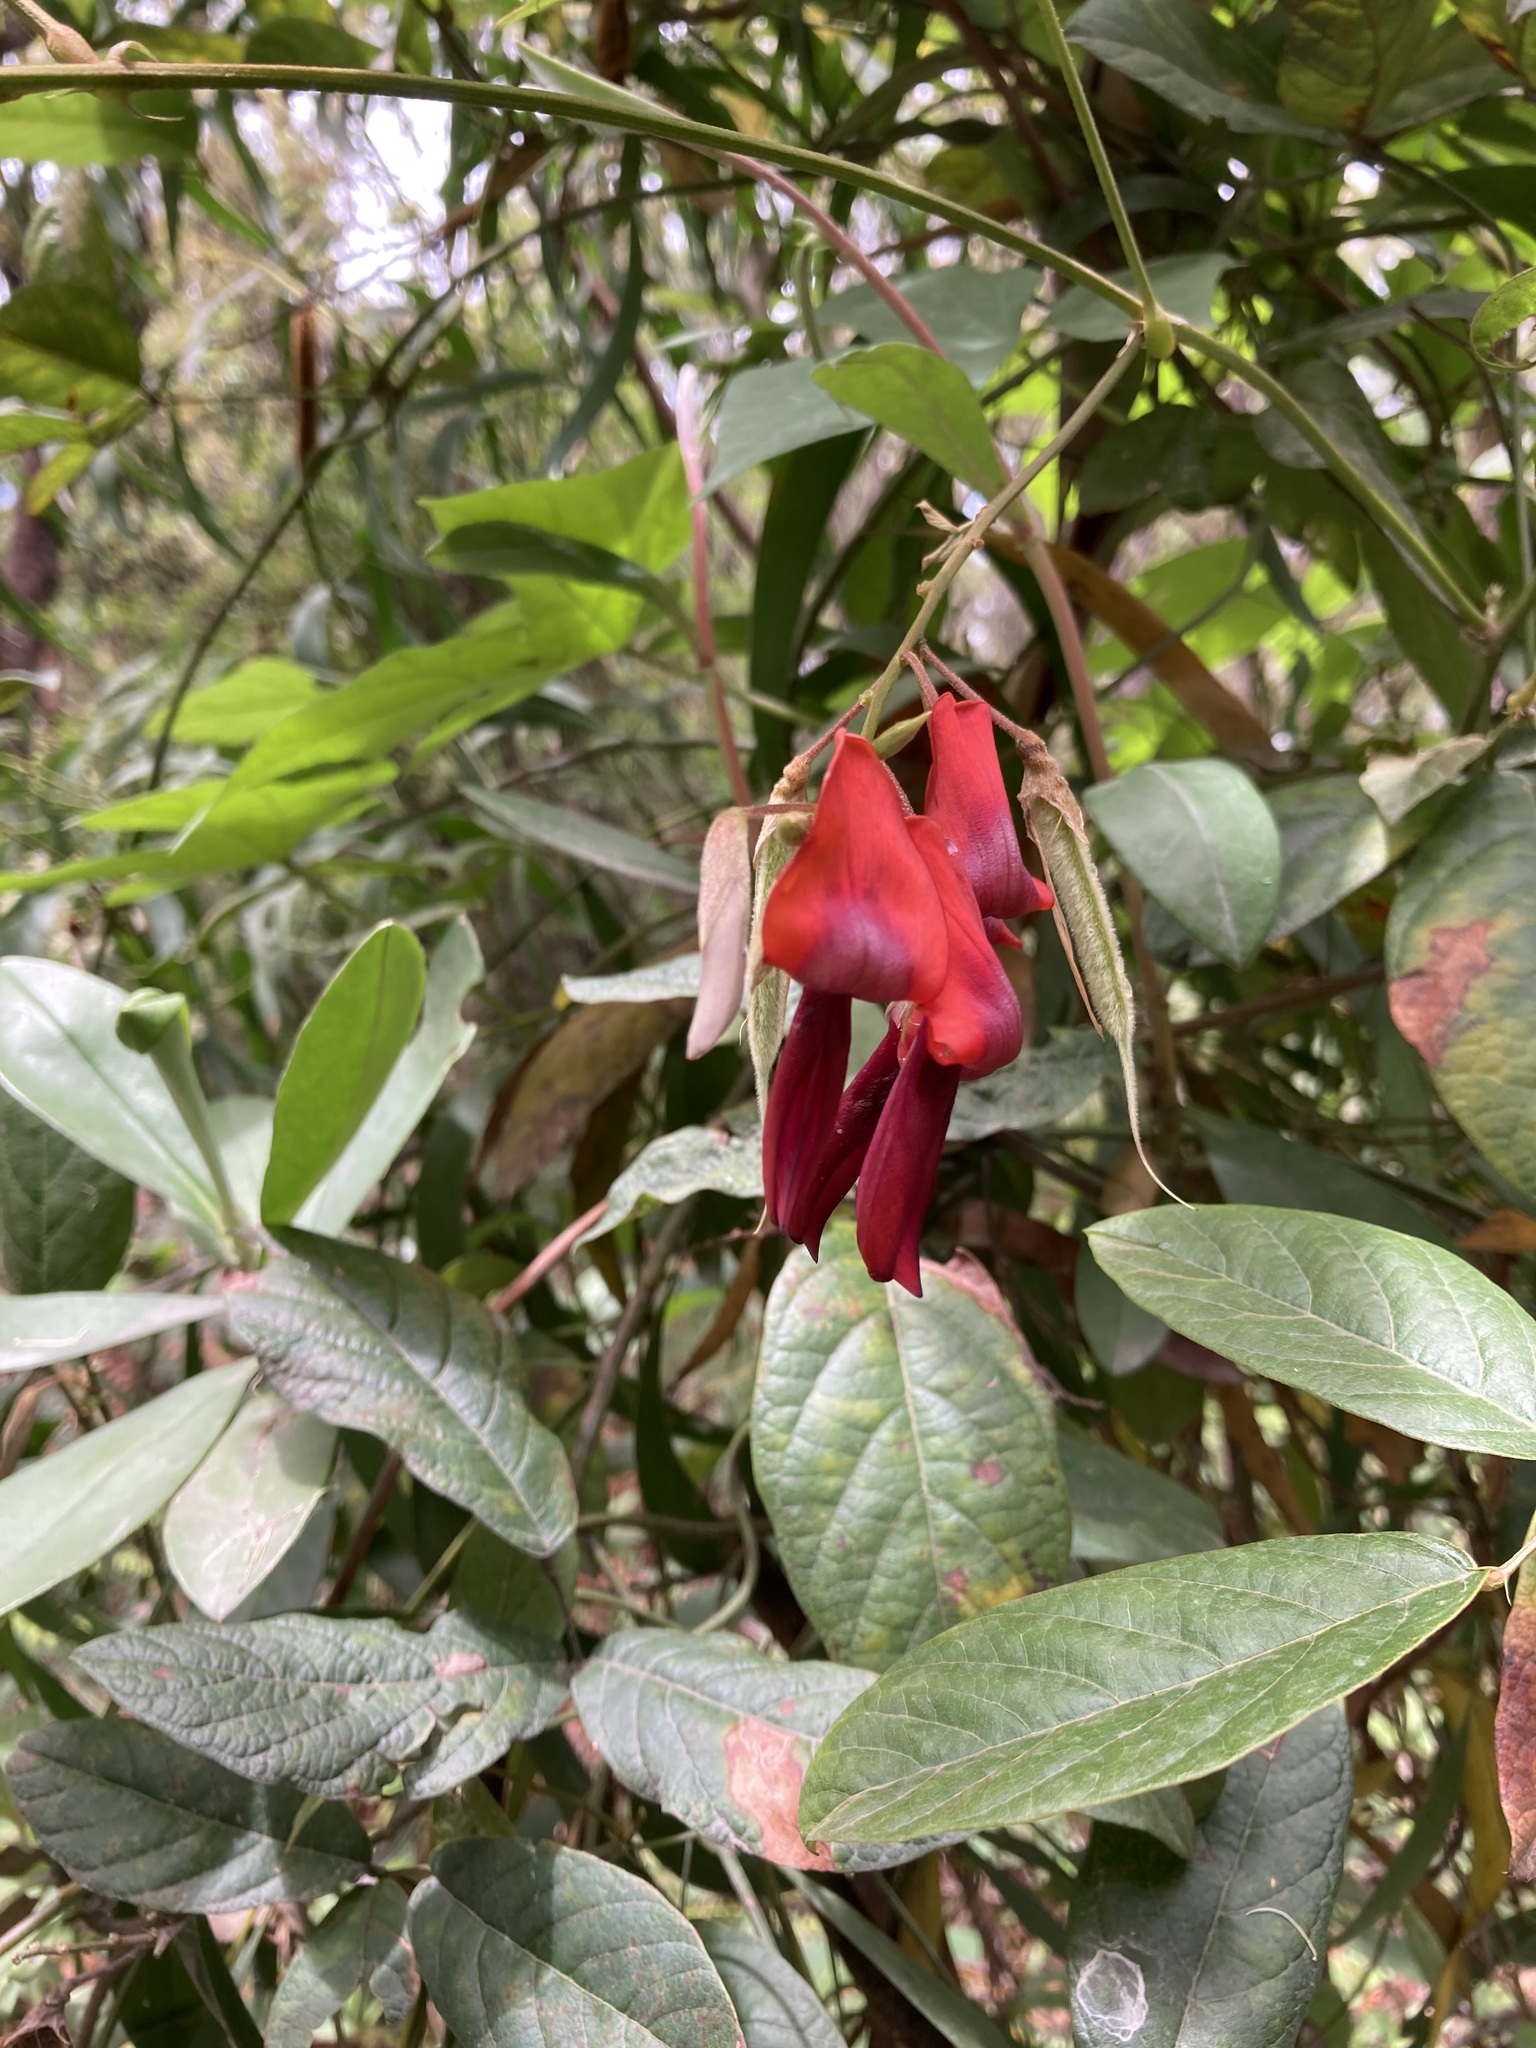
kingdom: Plantae
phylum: Tracheophyta
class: Magnoliopsida
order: Fabales
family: Fabaceae
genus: Kennedia
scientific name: Kennedia rubicunda
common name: Red kennedy-pea
